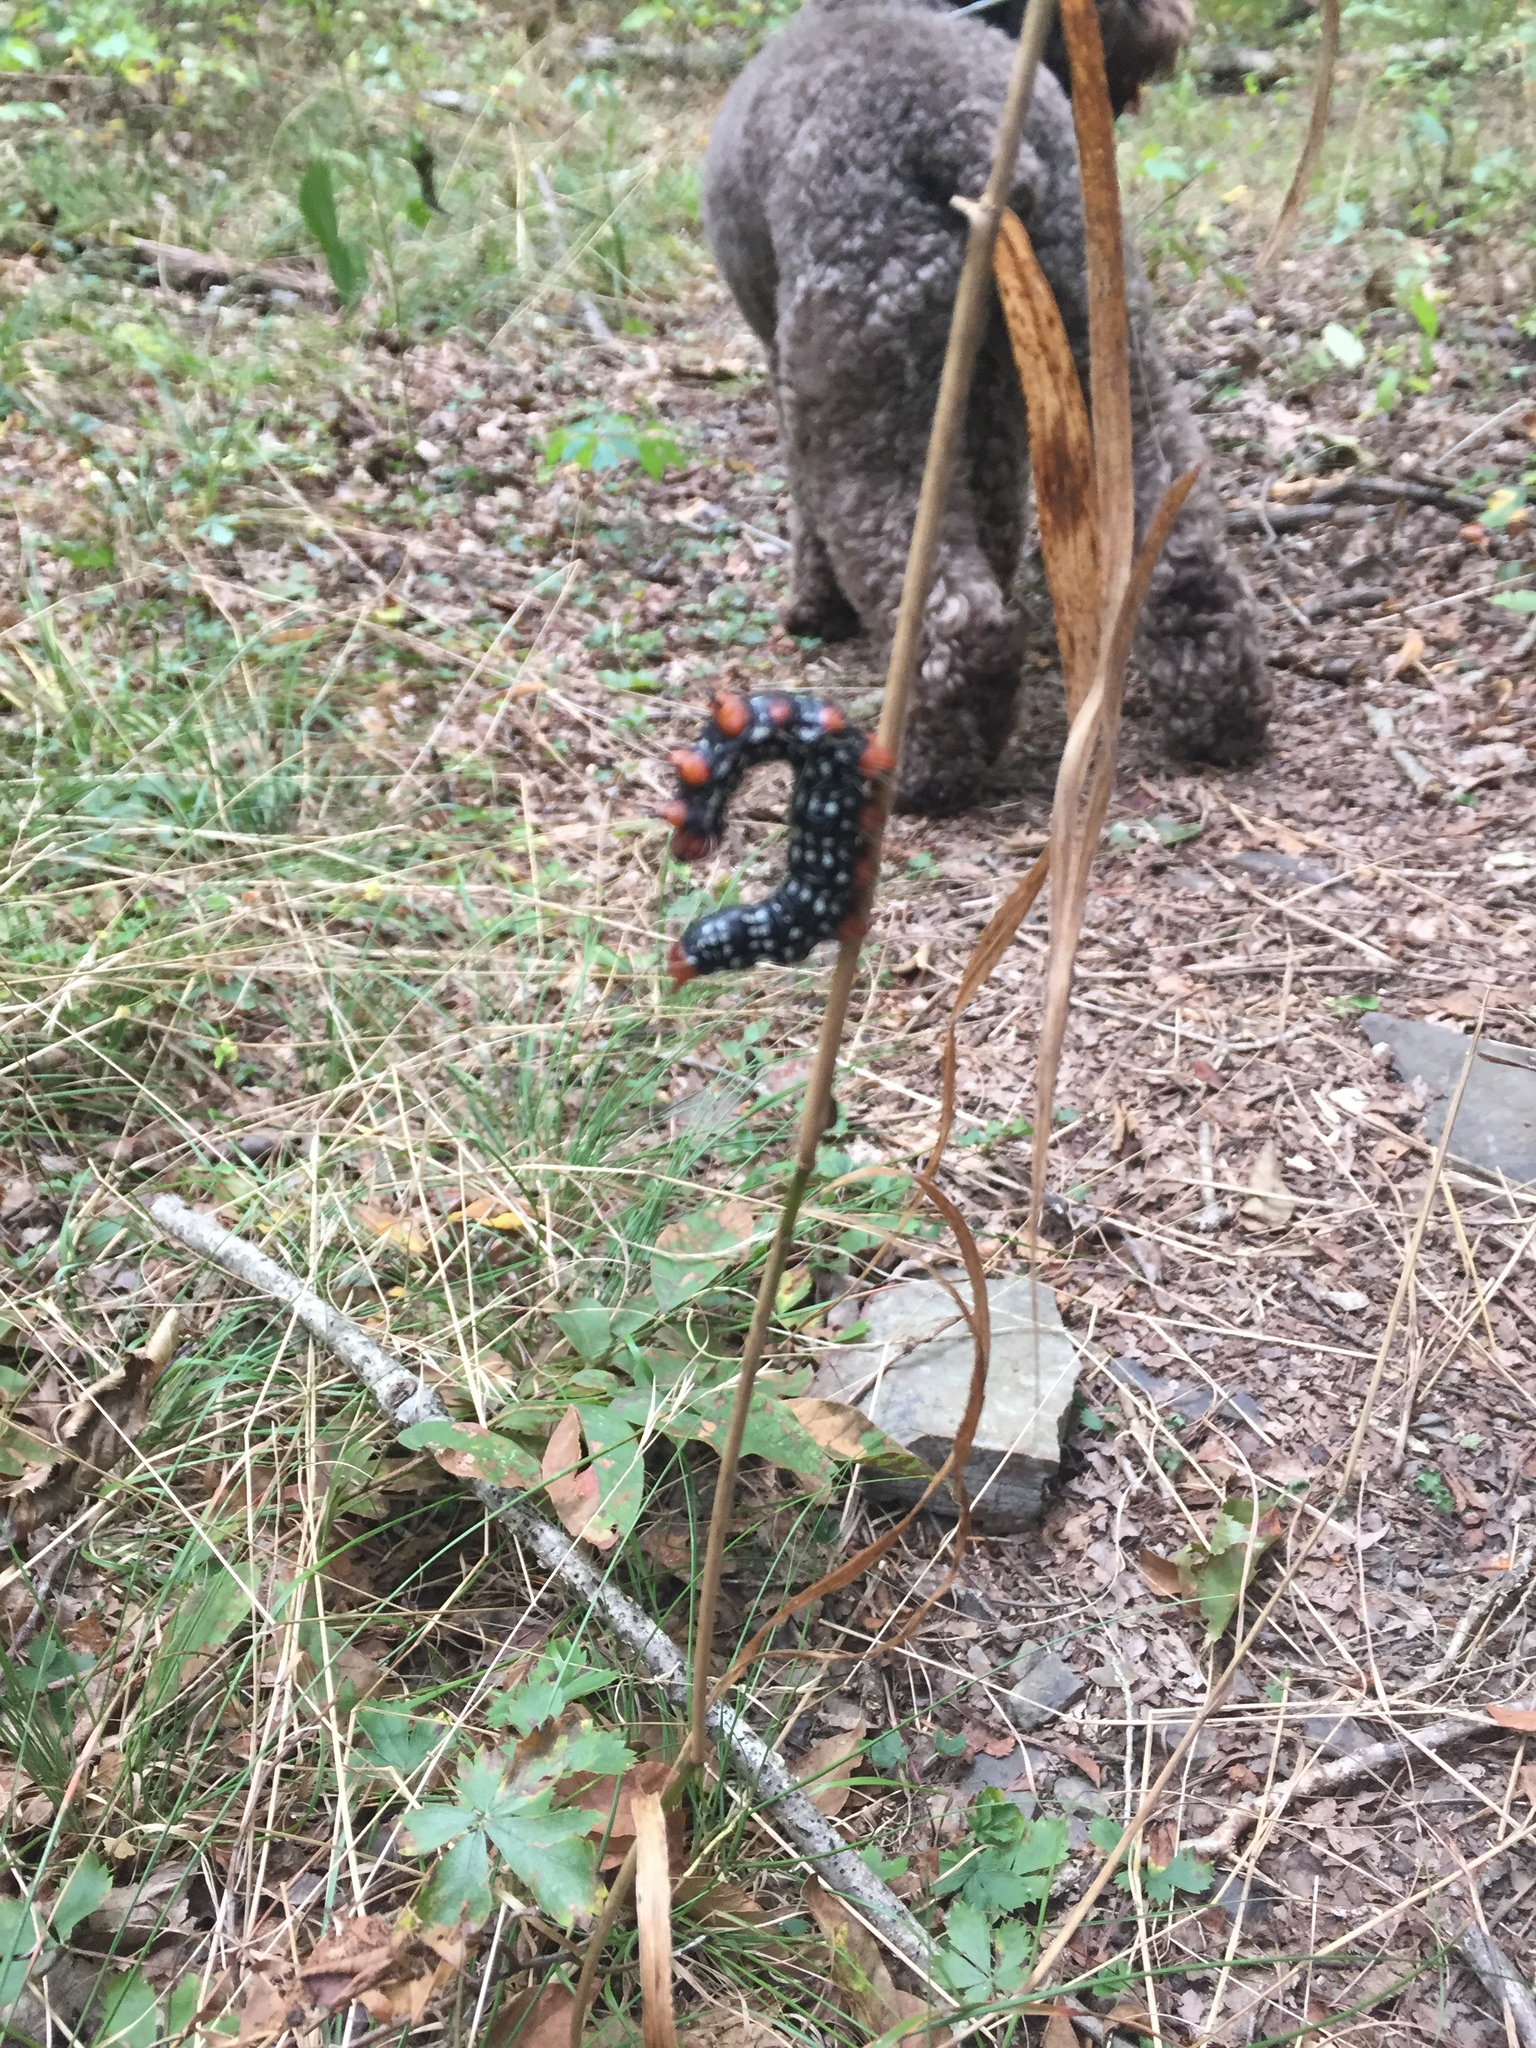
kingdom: Animalia
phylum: Arthropoda
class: Insecta
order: Lepidoptera
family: Notodontidae
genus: Datana
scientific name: Datana major
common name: Azalea caterpillar
